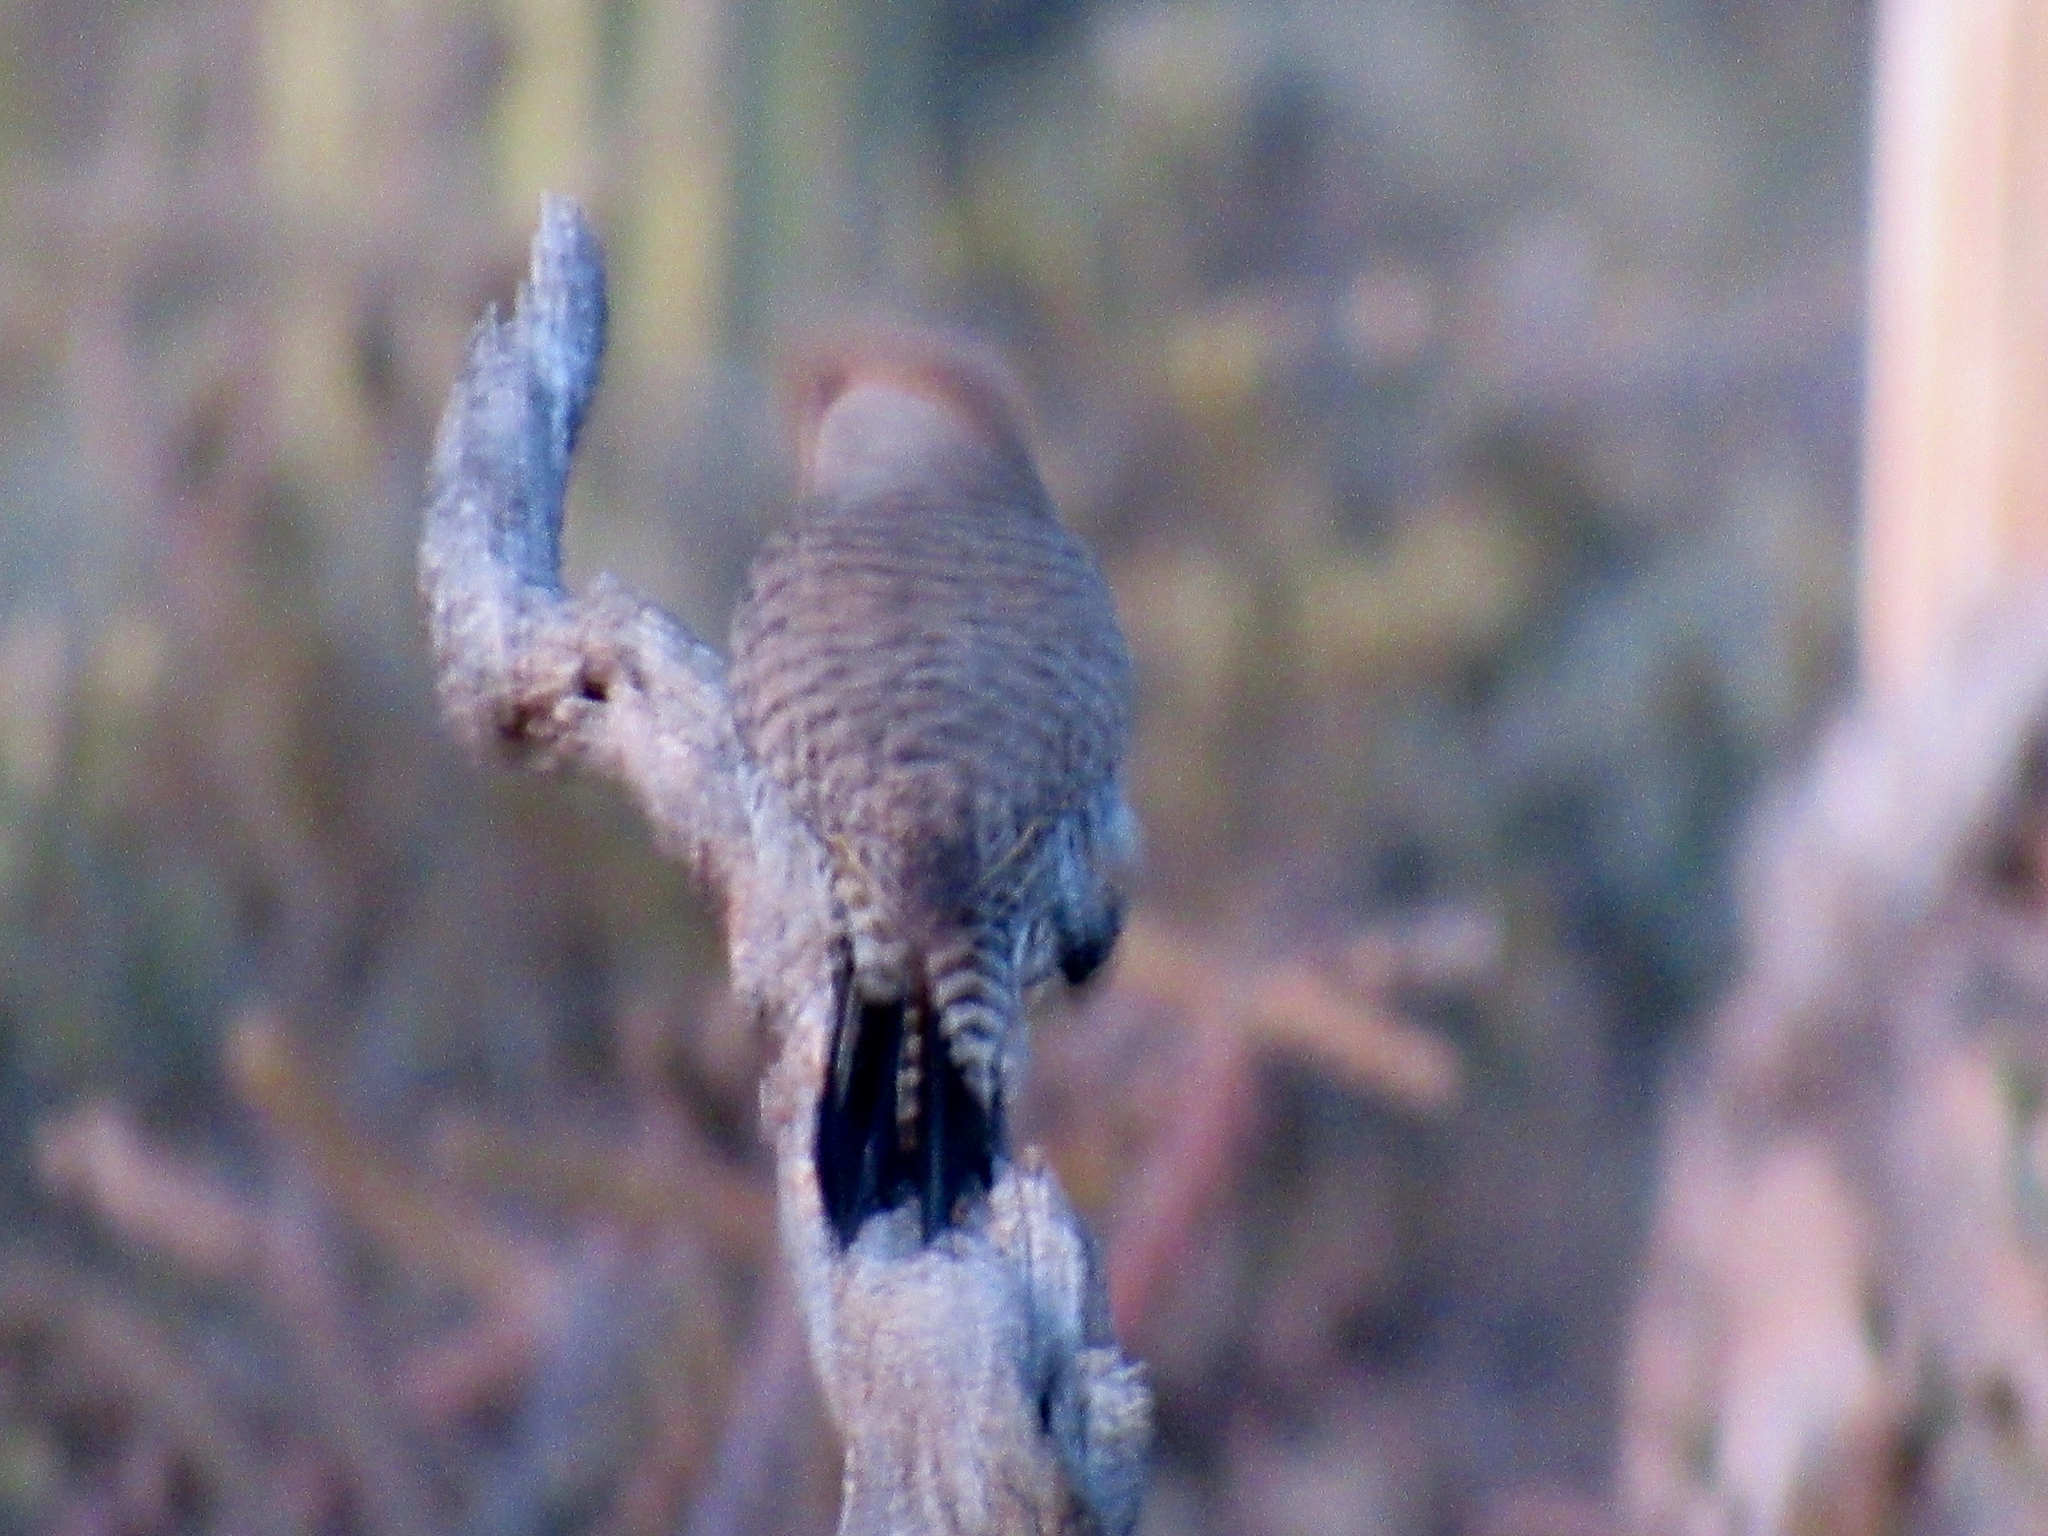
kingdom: Animalia
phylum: Chordata
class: Aves
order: Piciformes
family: Picidae
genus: Colaptes
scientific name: Colaptes chrysoides
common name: Gilded flicker
